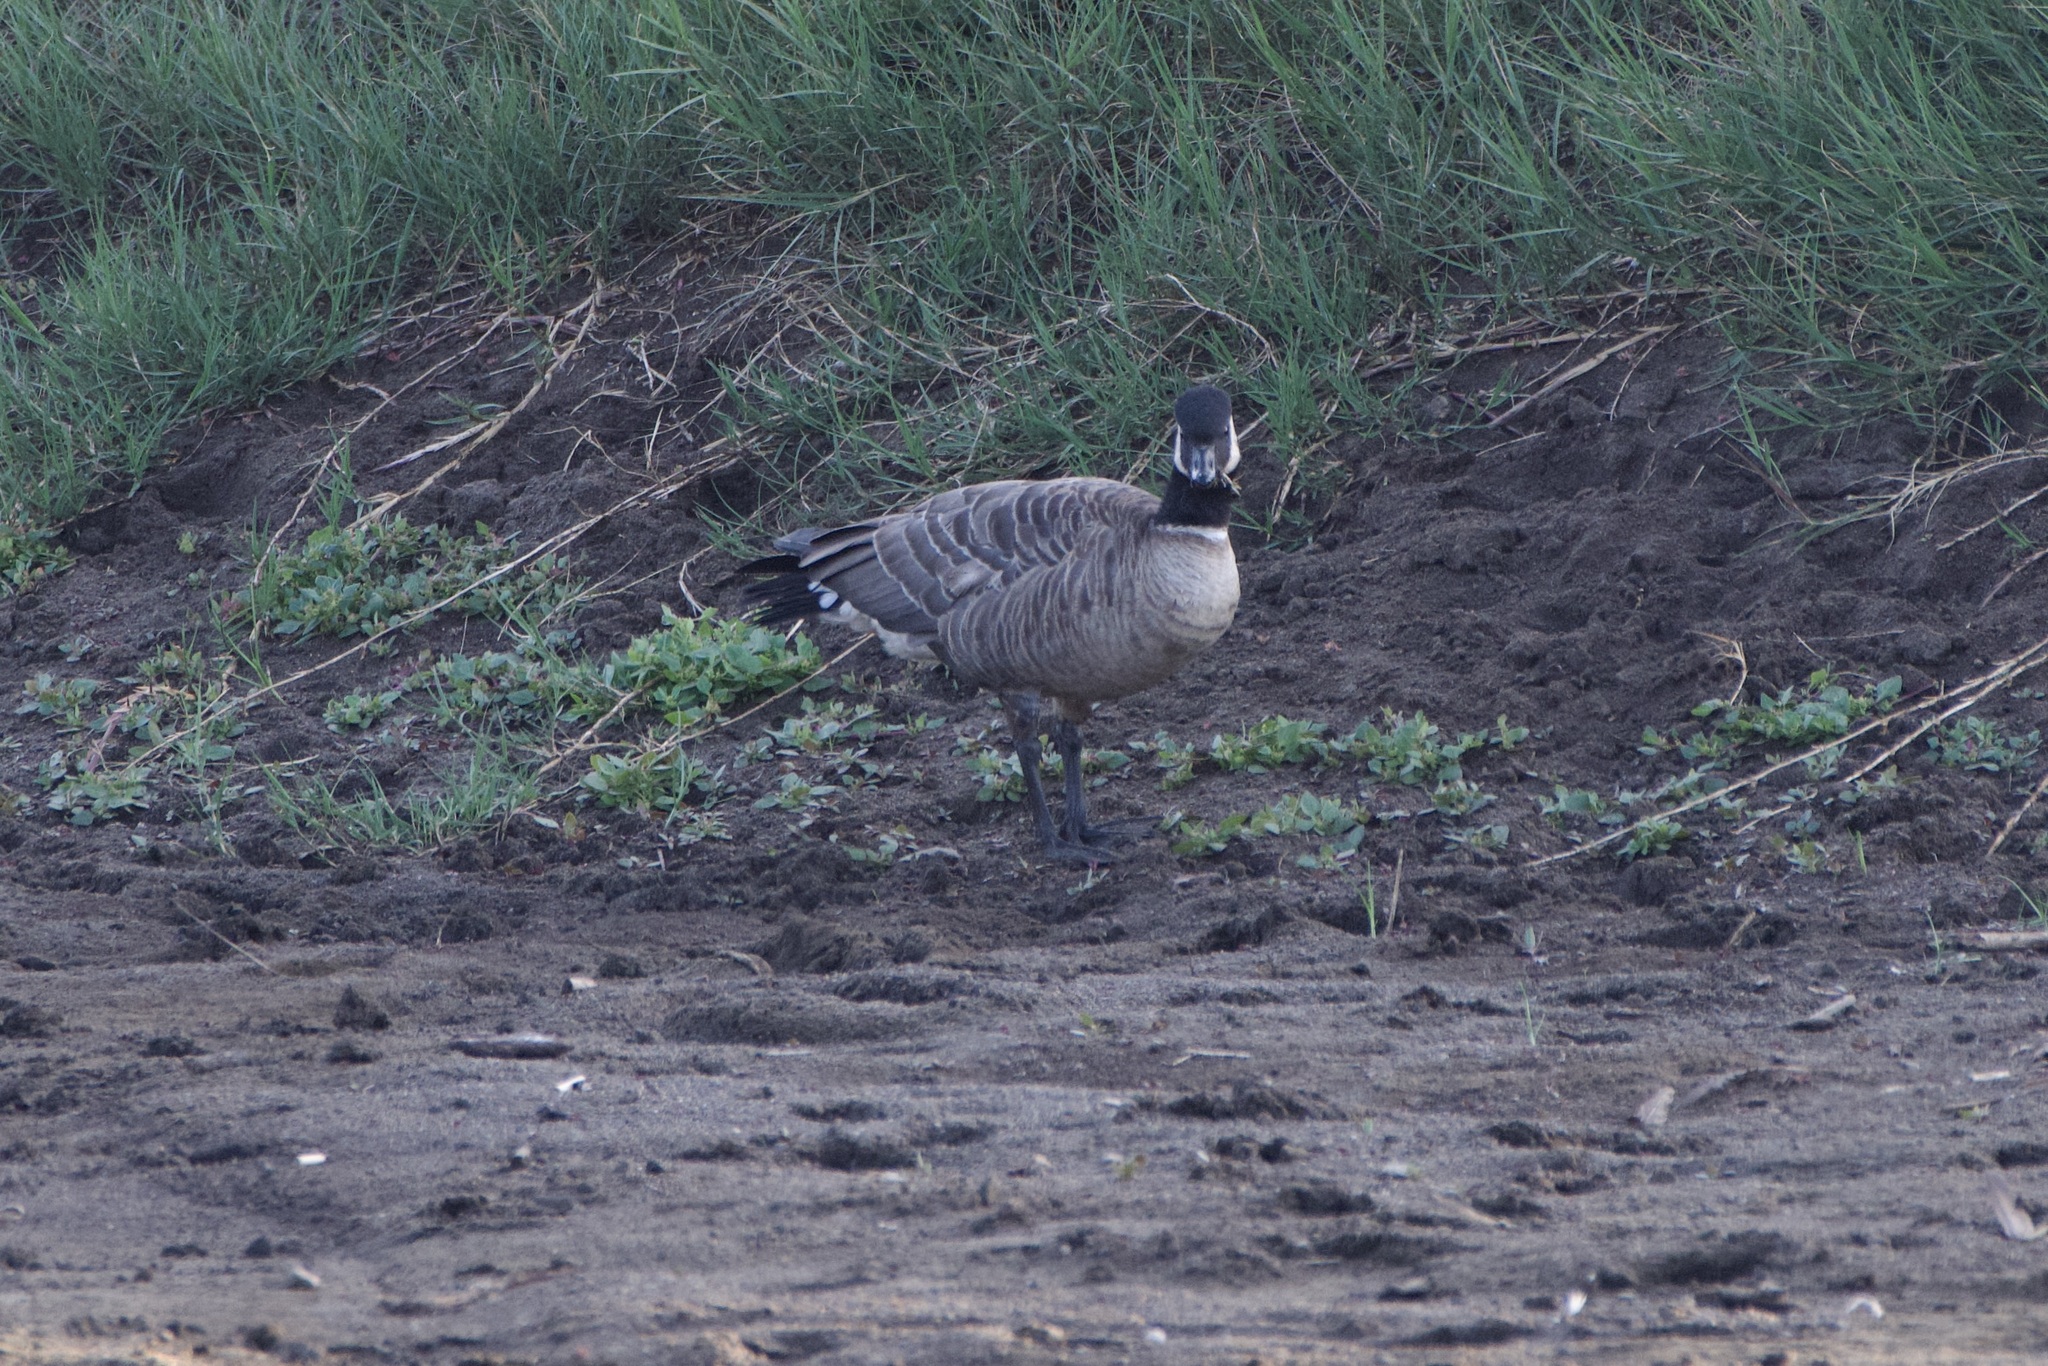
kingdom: Animalia
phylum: Chordata
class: Aves
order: Anseriformes
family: Anatidae
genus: Branta
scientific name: Branta hutchinsii
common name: Cackling goose
